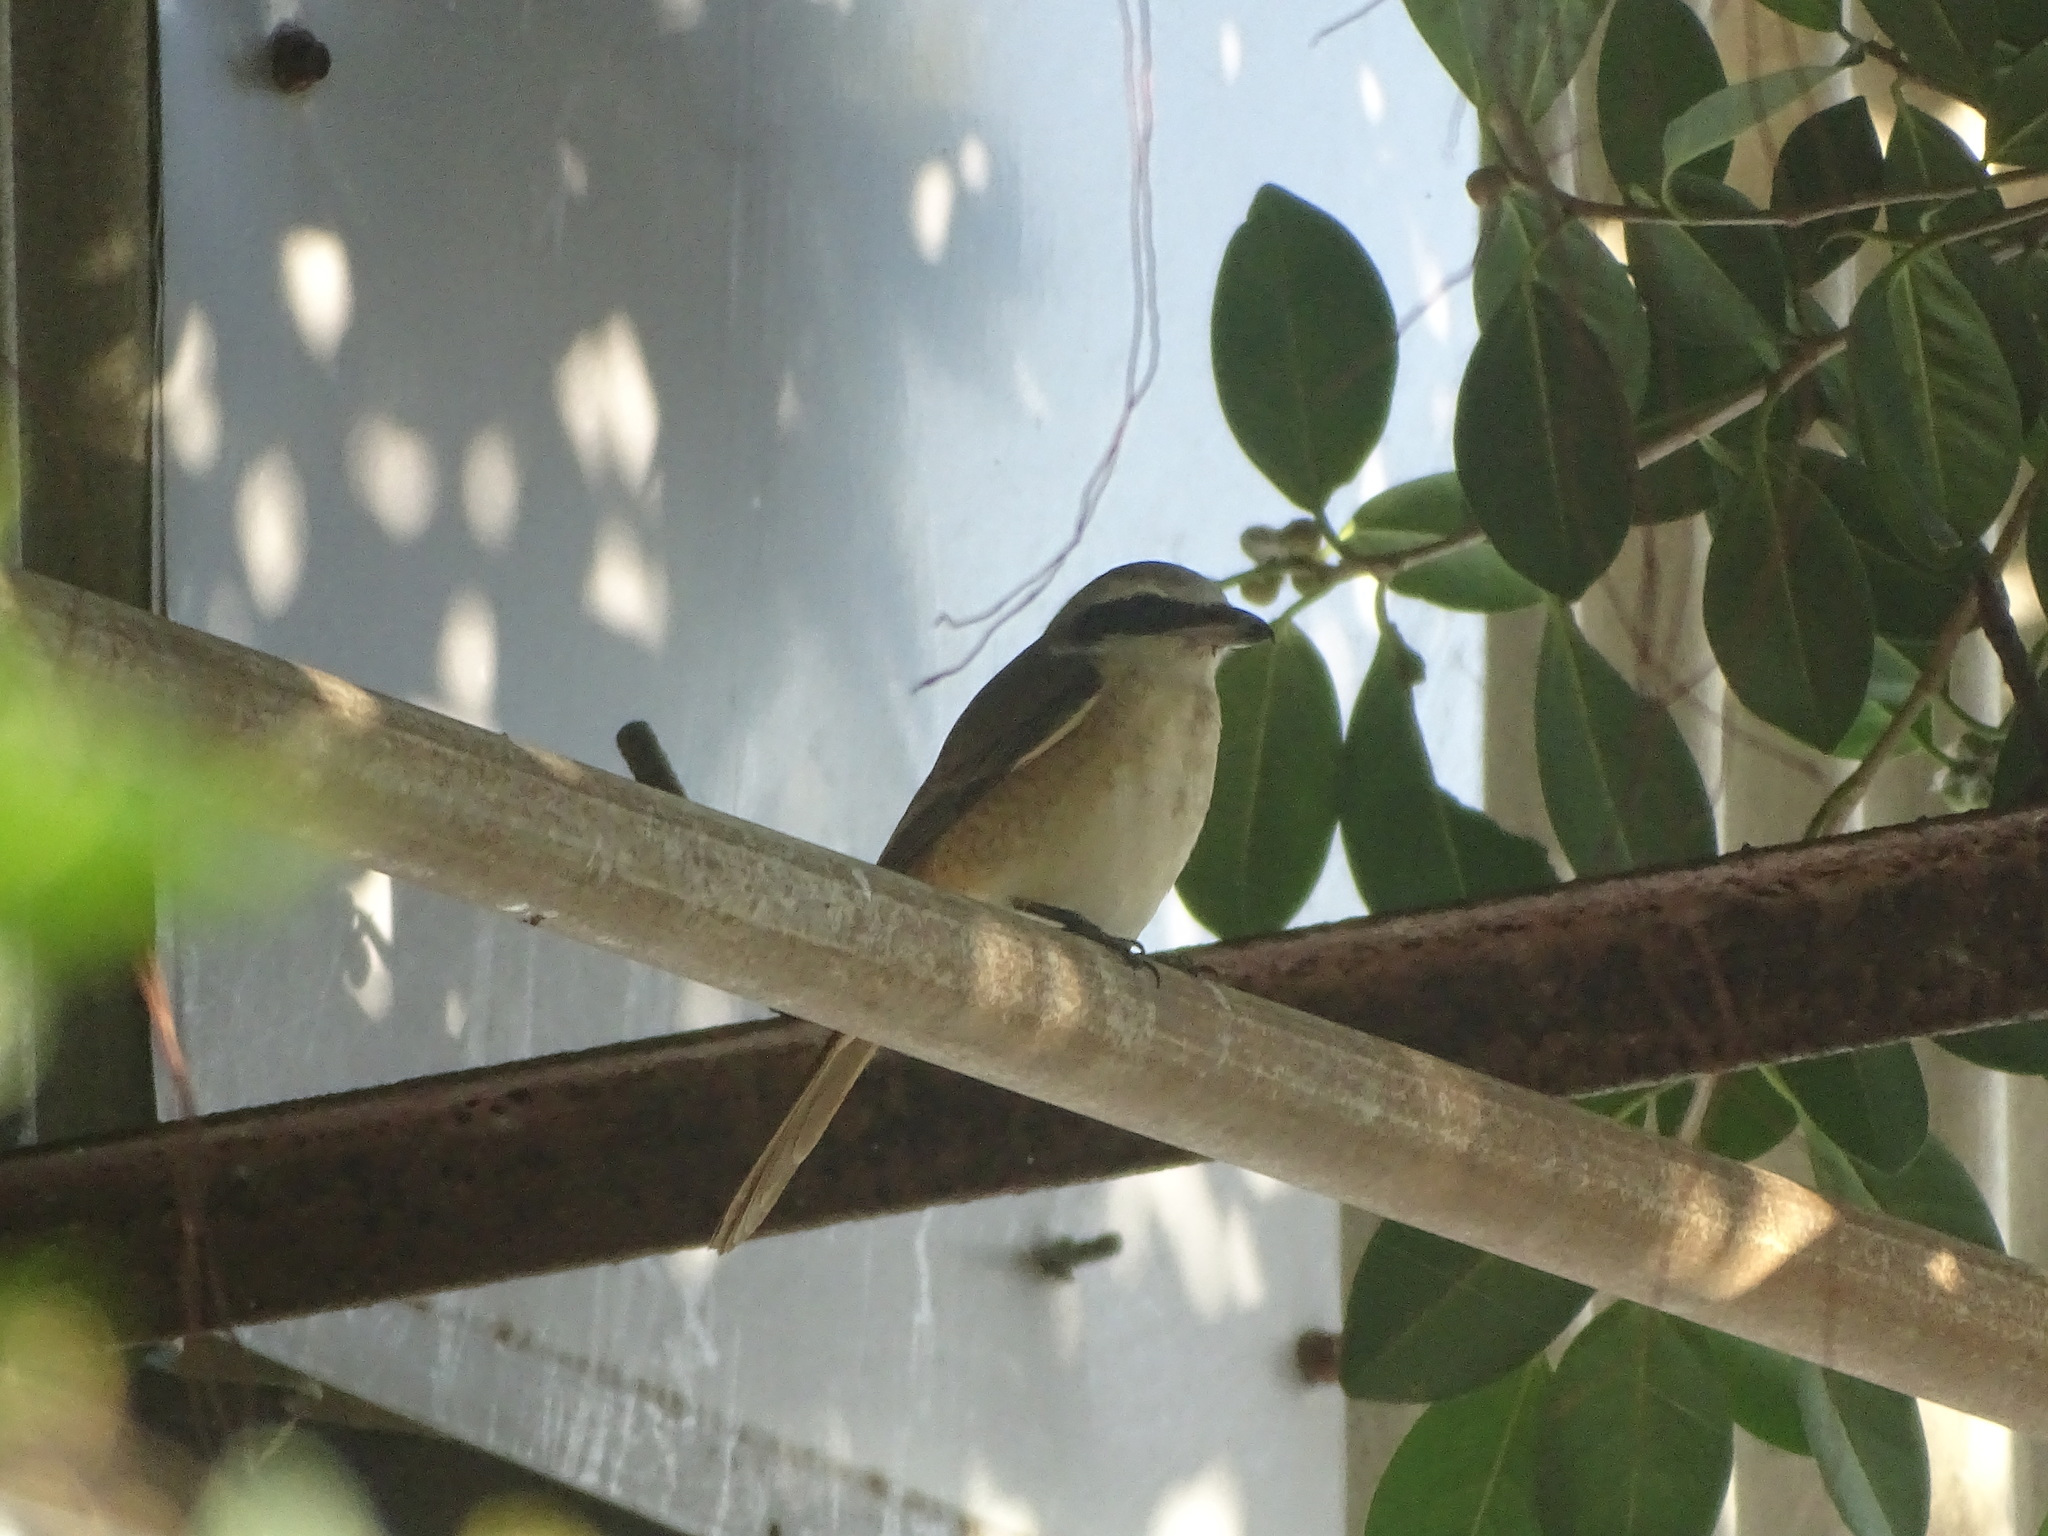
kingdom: Animalia
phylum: Chordata
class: Aves
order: Passeriformes
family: Laniidae
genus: Lanius
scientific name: Lanius cristatus
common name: Brown shrike
